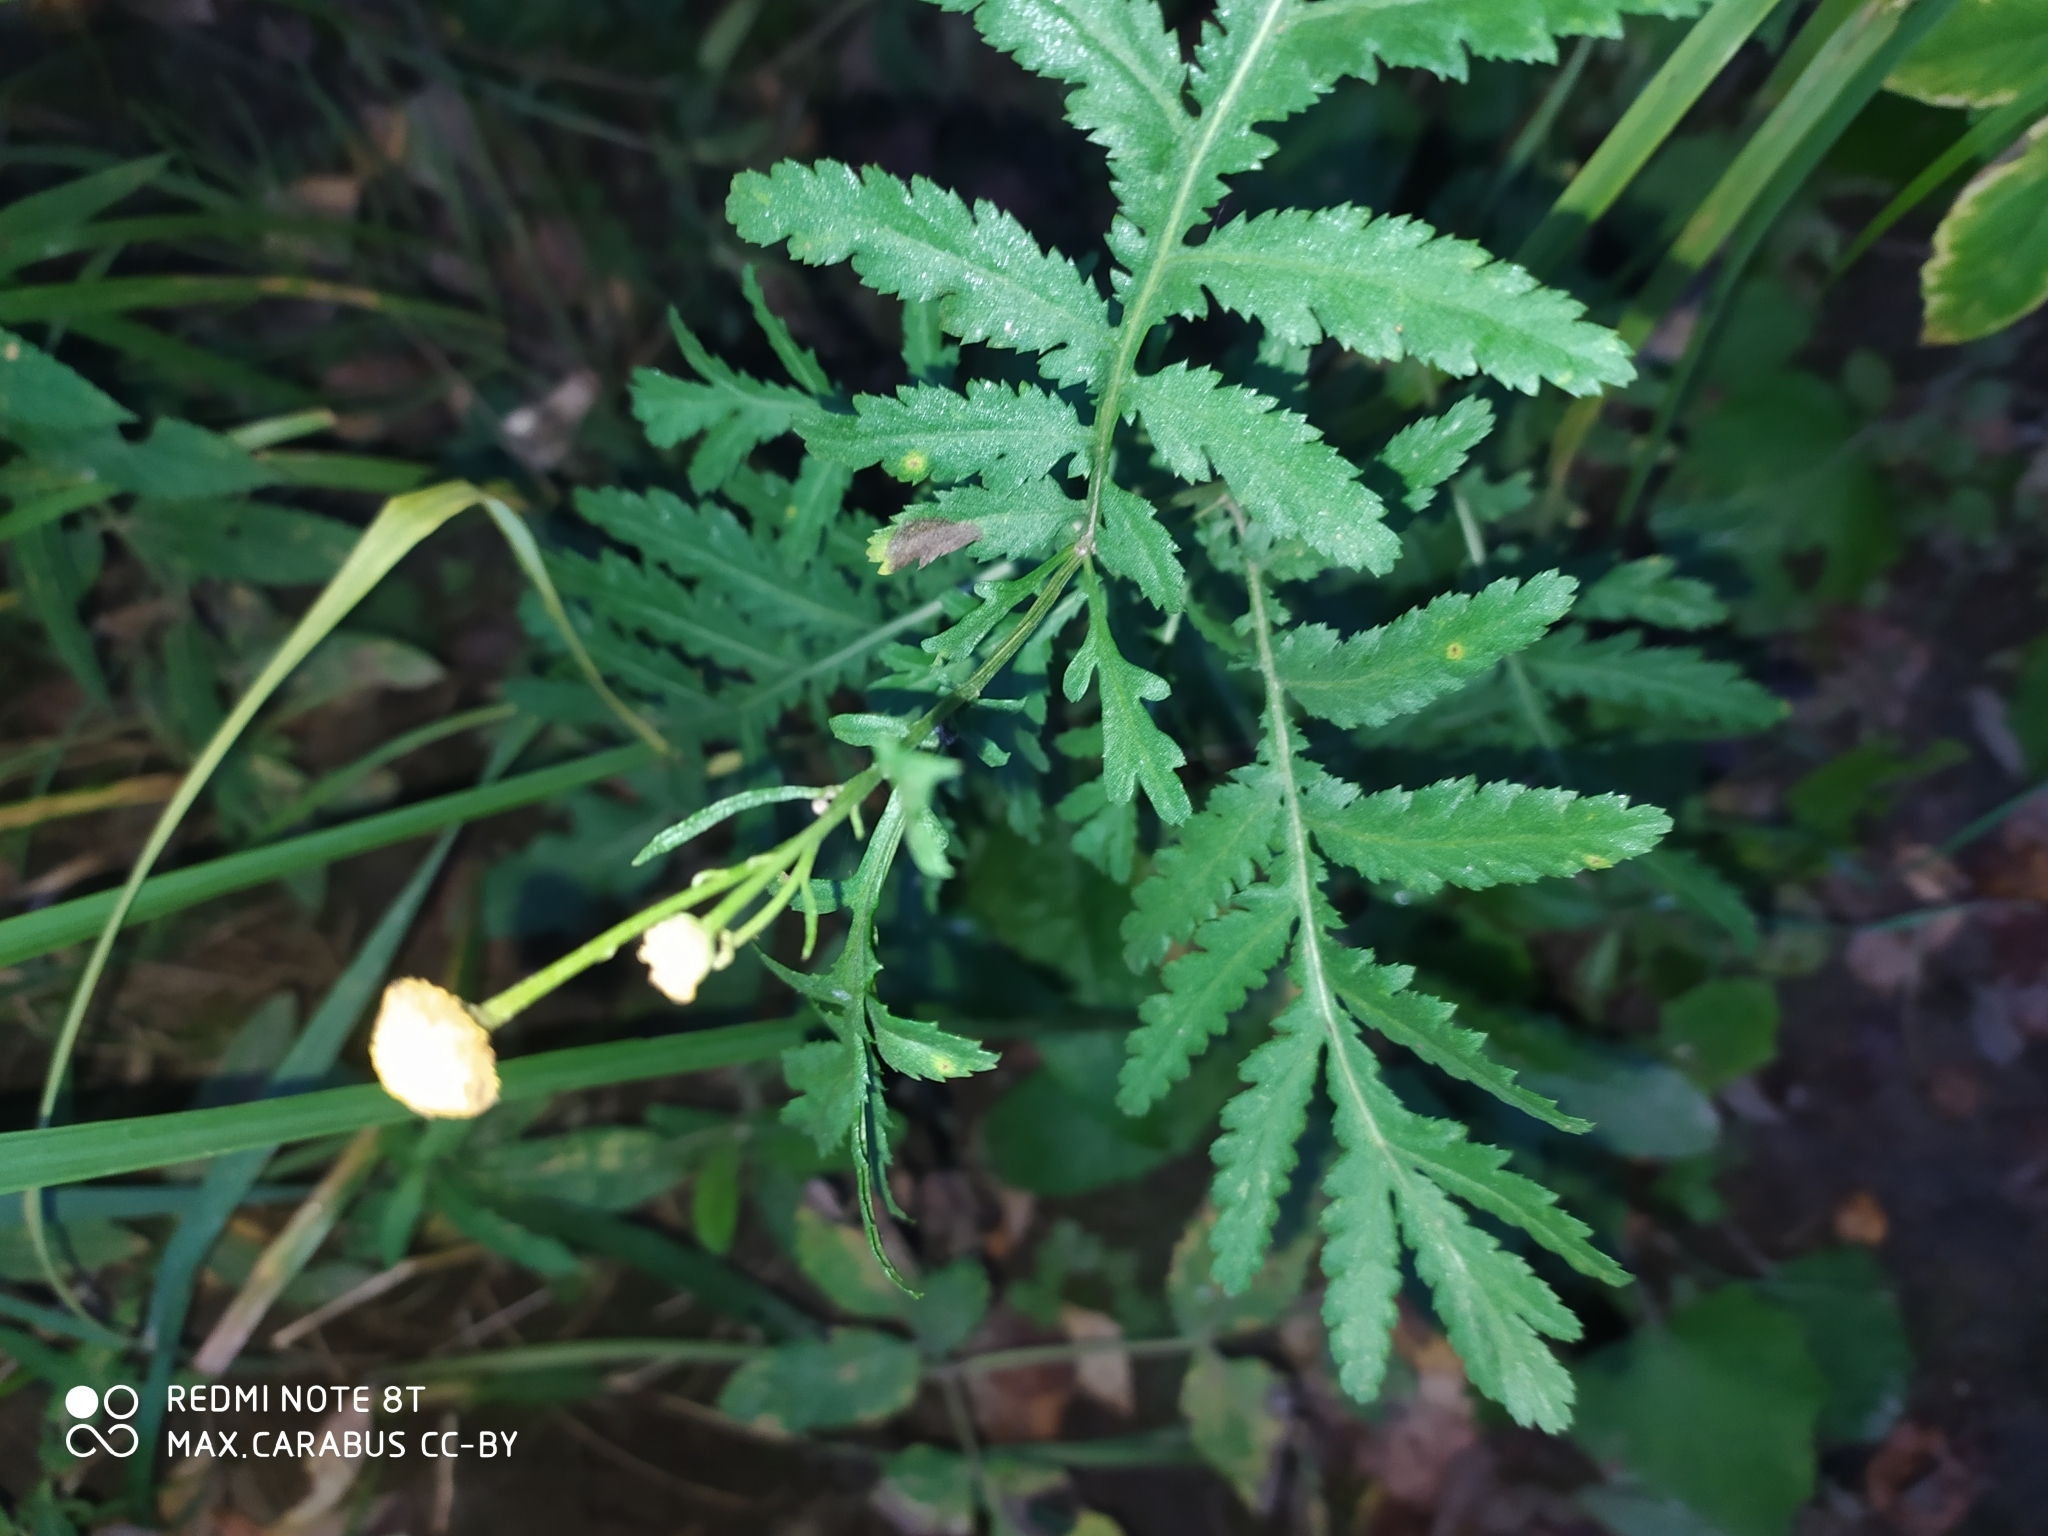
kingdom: Plantae
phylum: Tracheophyta
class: Magnoliopsida
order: Asterales
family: Asteraceae
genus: Tanacetum
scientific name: Tanacetum vulgare
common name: Common tansy
